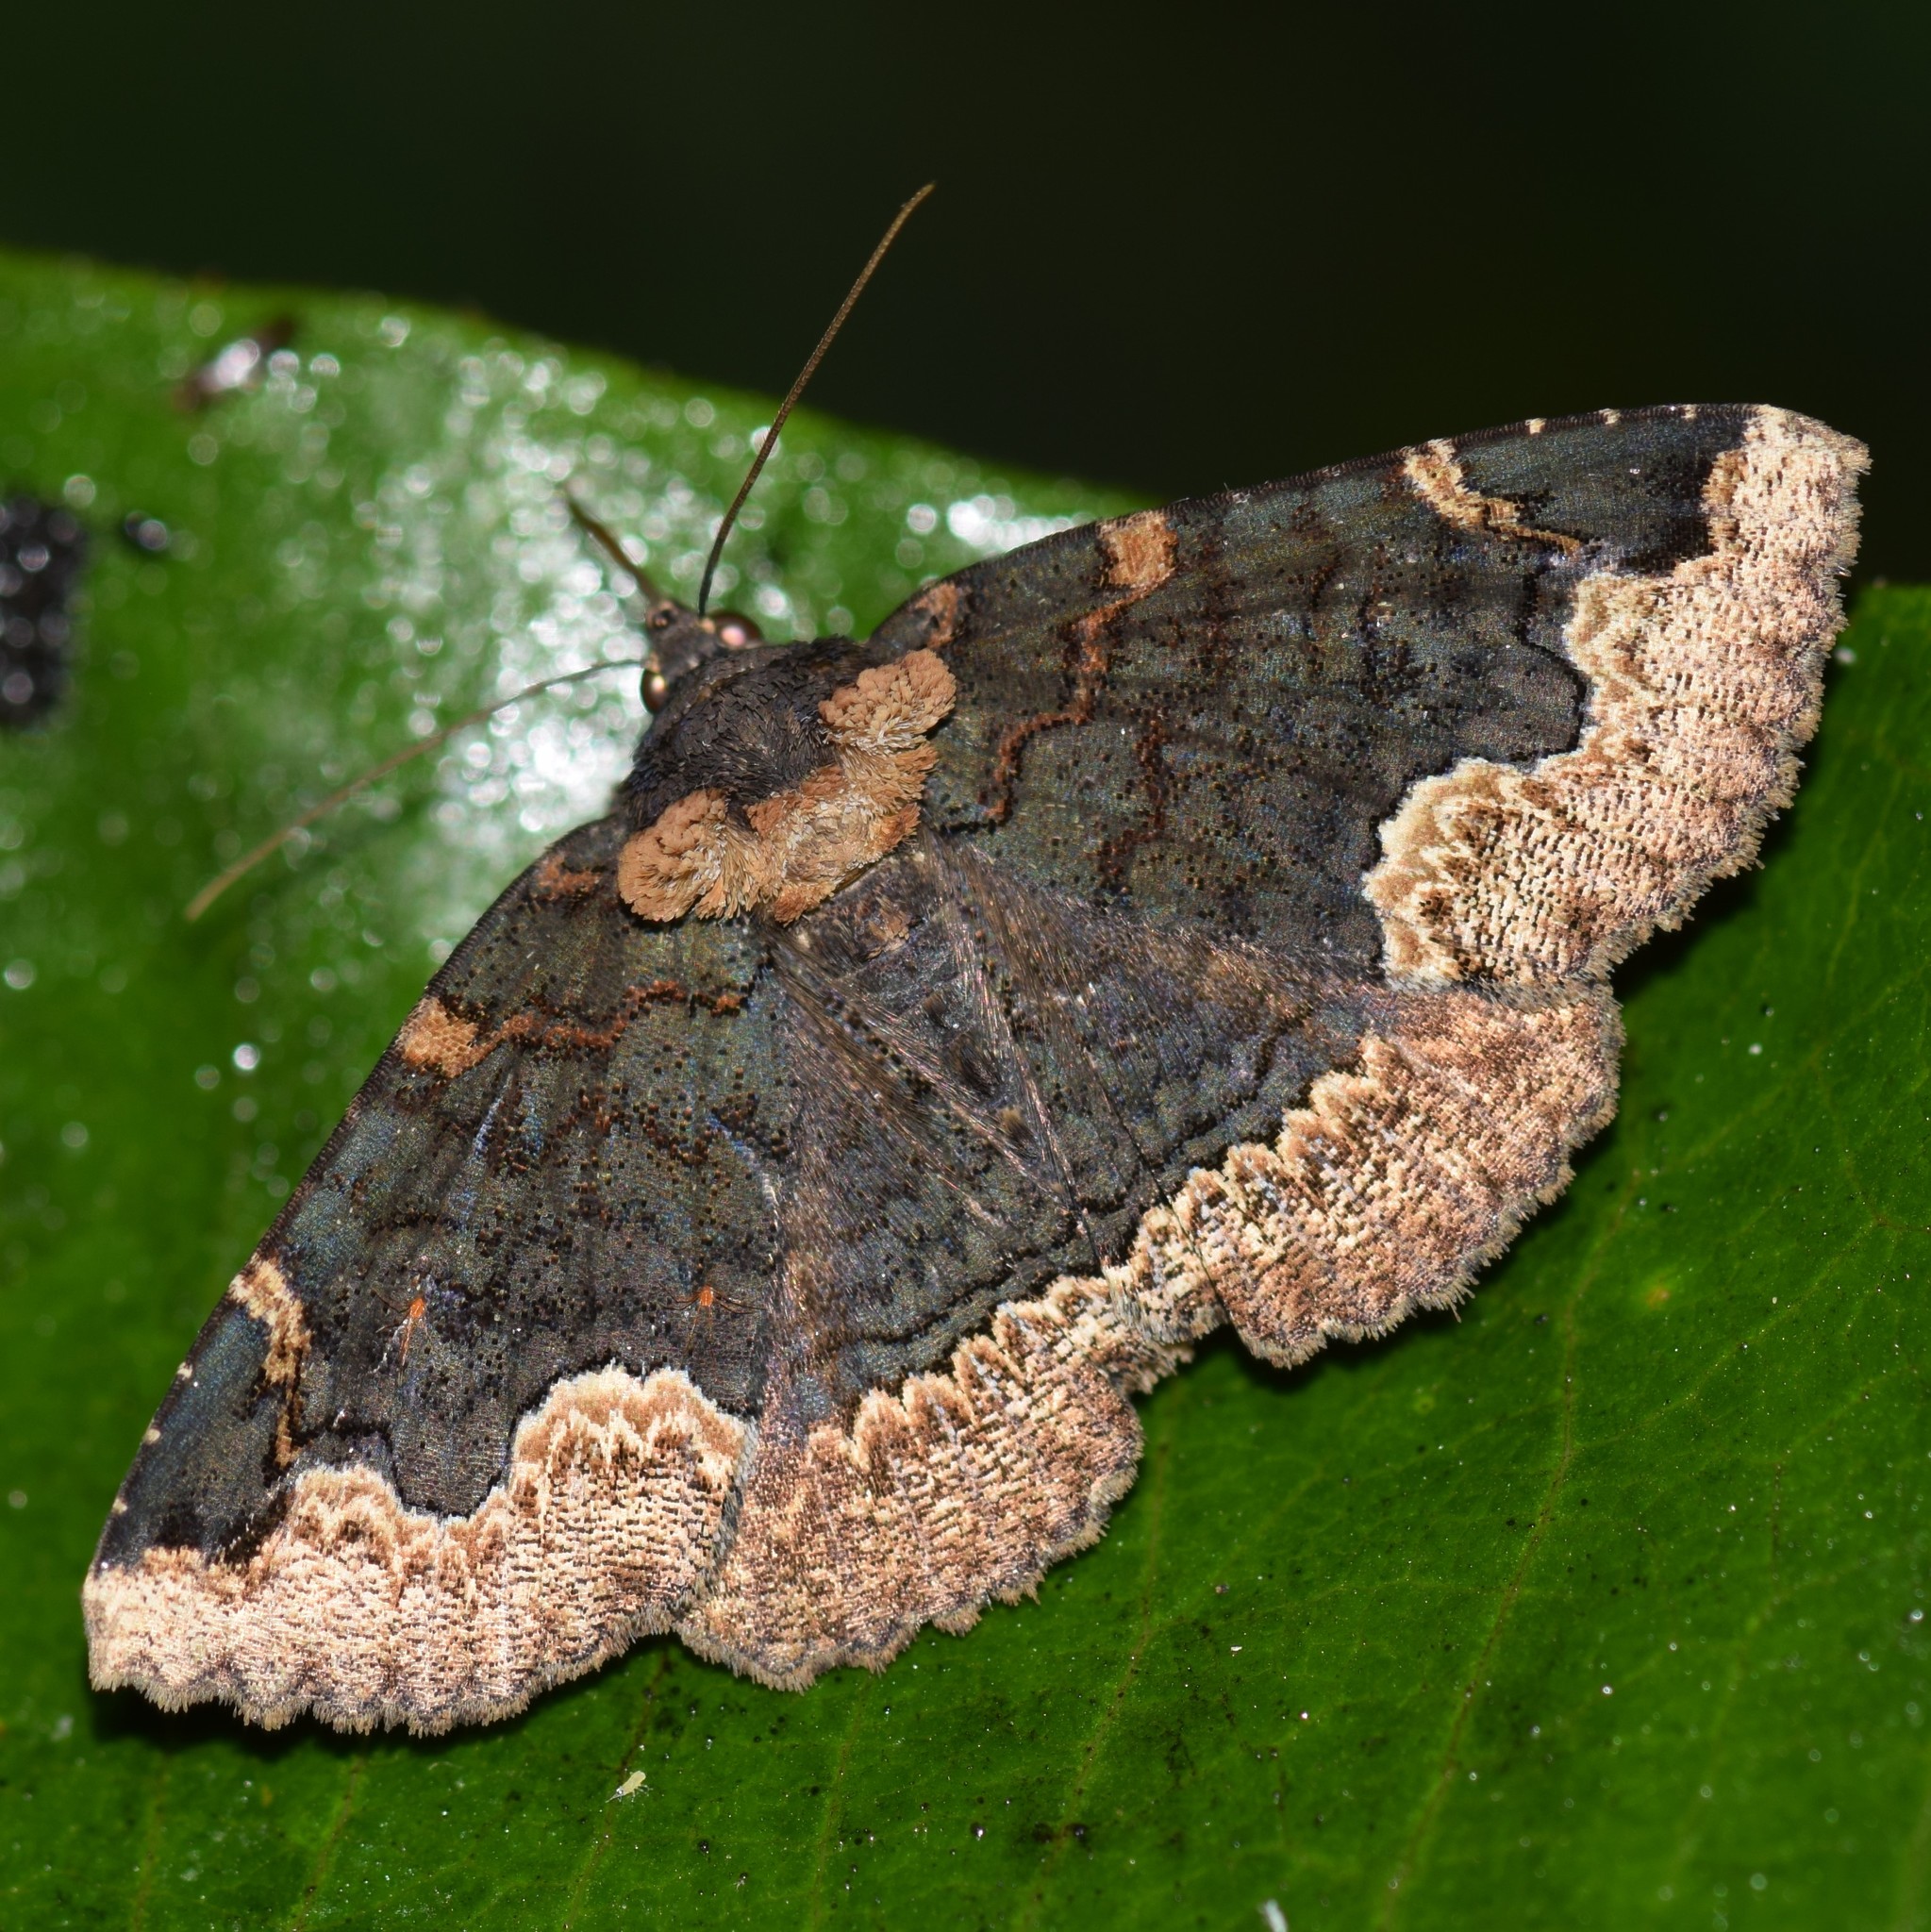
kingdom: Animalia
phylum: Arthropoda
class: Insecta
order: Lepidoptera
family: Erebidae
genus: Zale
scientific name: Zale horrida
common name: Horrid zale moth
